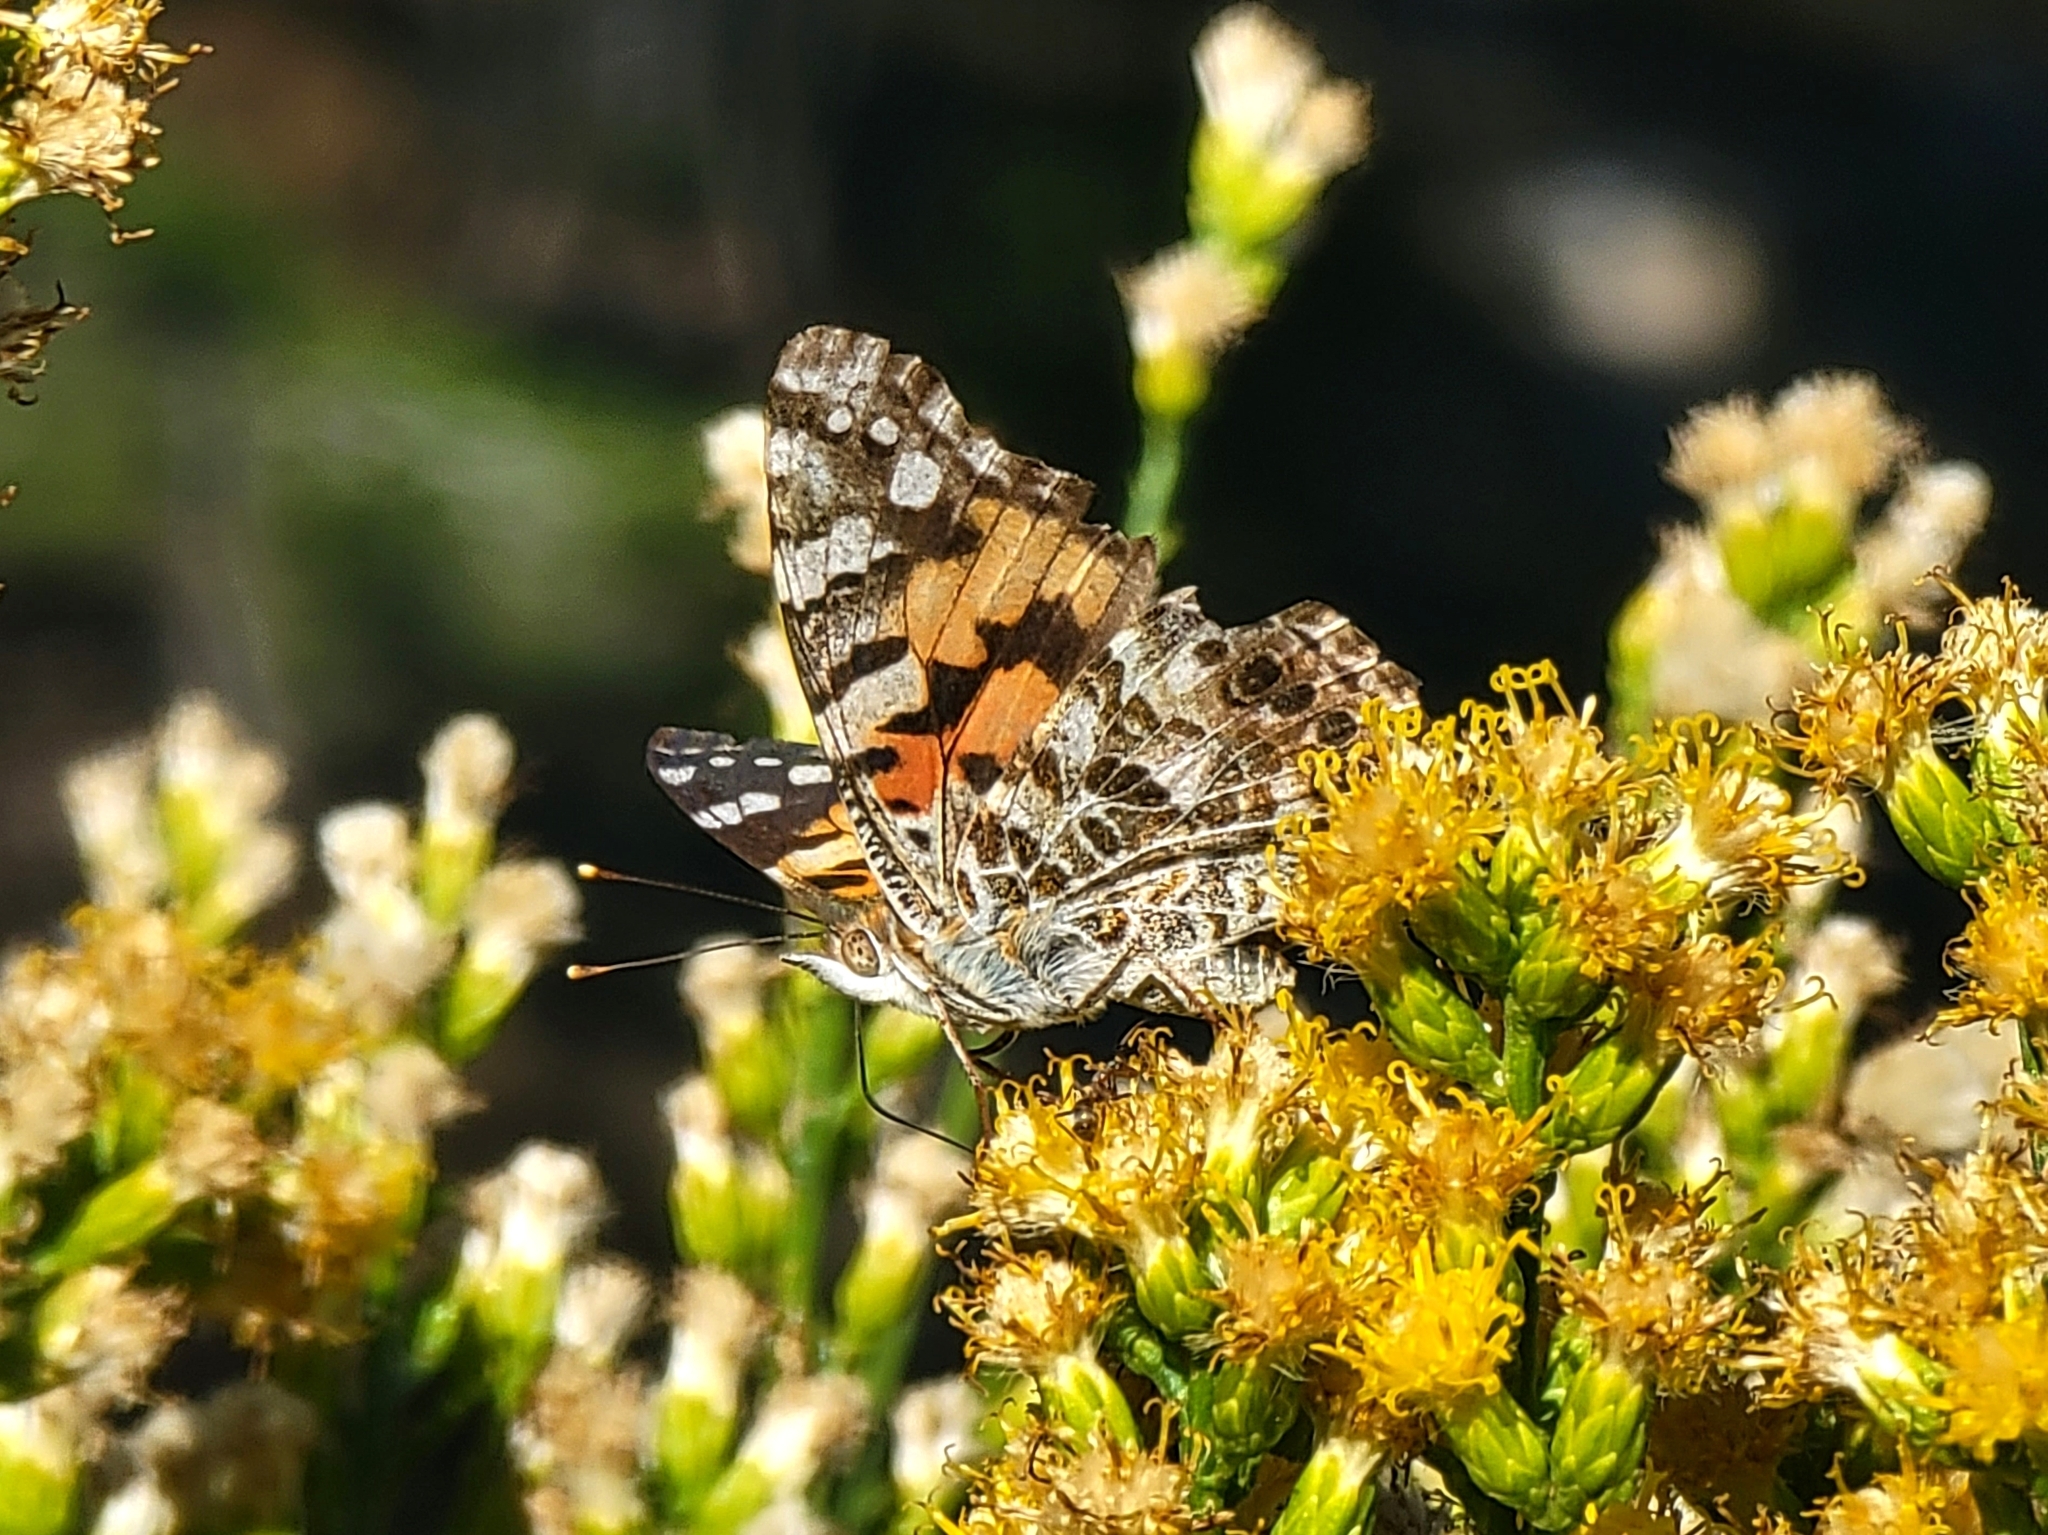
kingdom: Animalia
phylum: Arthropoda
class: Insecta
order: Lepidoptera
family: Nymphalidae
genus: Vanessa
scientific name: Vanessa cardui
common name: Painted lady
